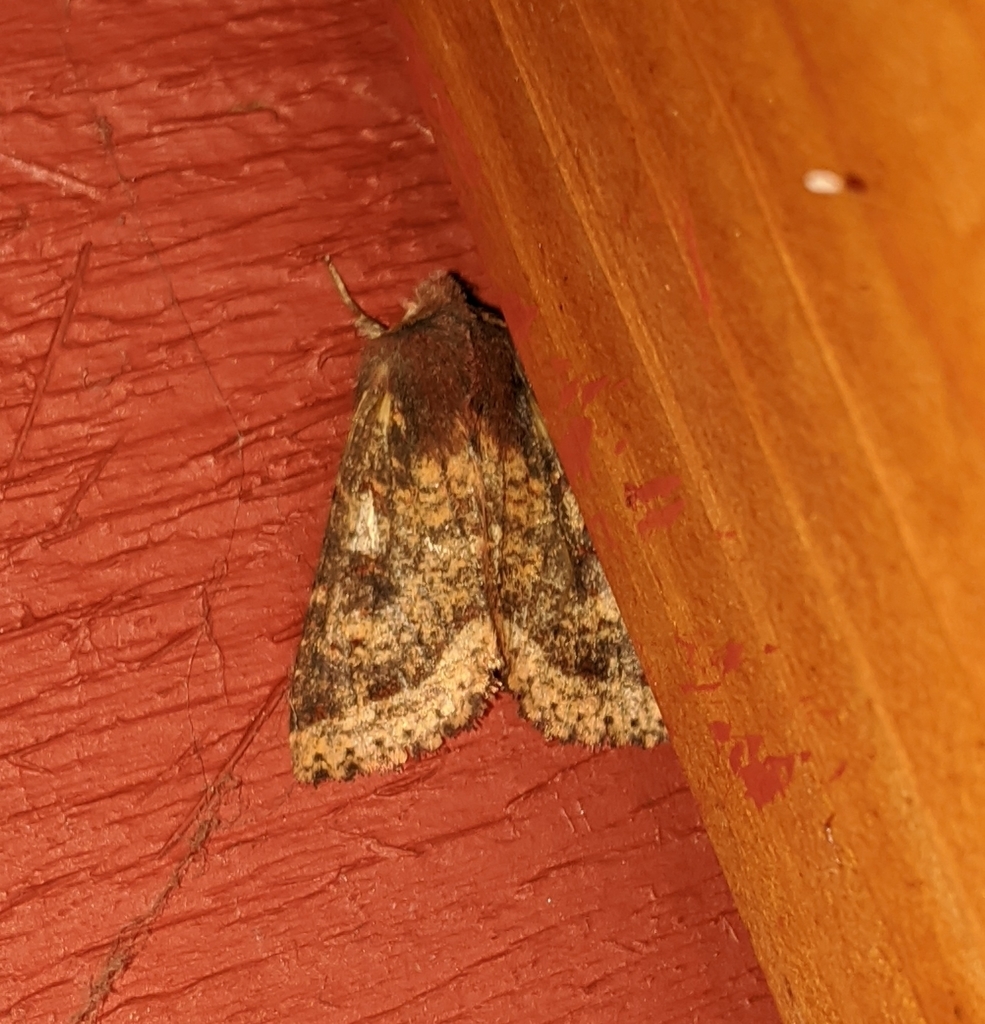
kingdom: Animalia
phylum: Arthropoda
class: Insecta
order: Lepidoptera
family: Noctuidae
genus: Orthosia
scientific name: Orthosia praeses
